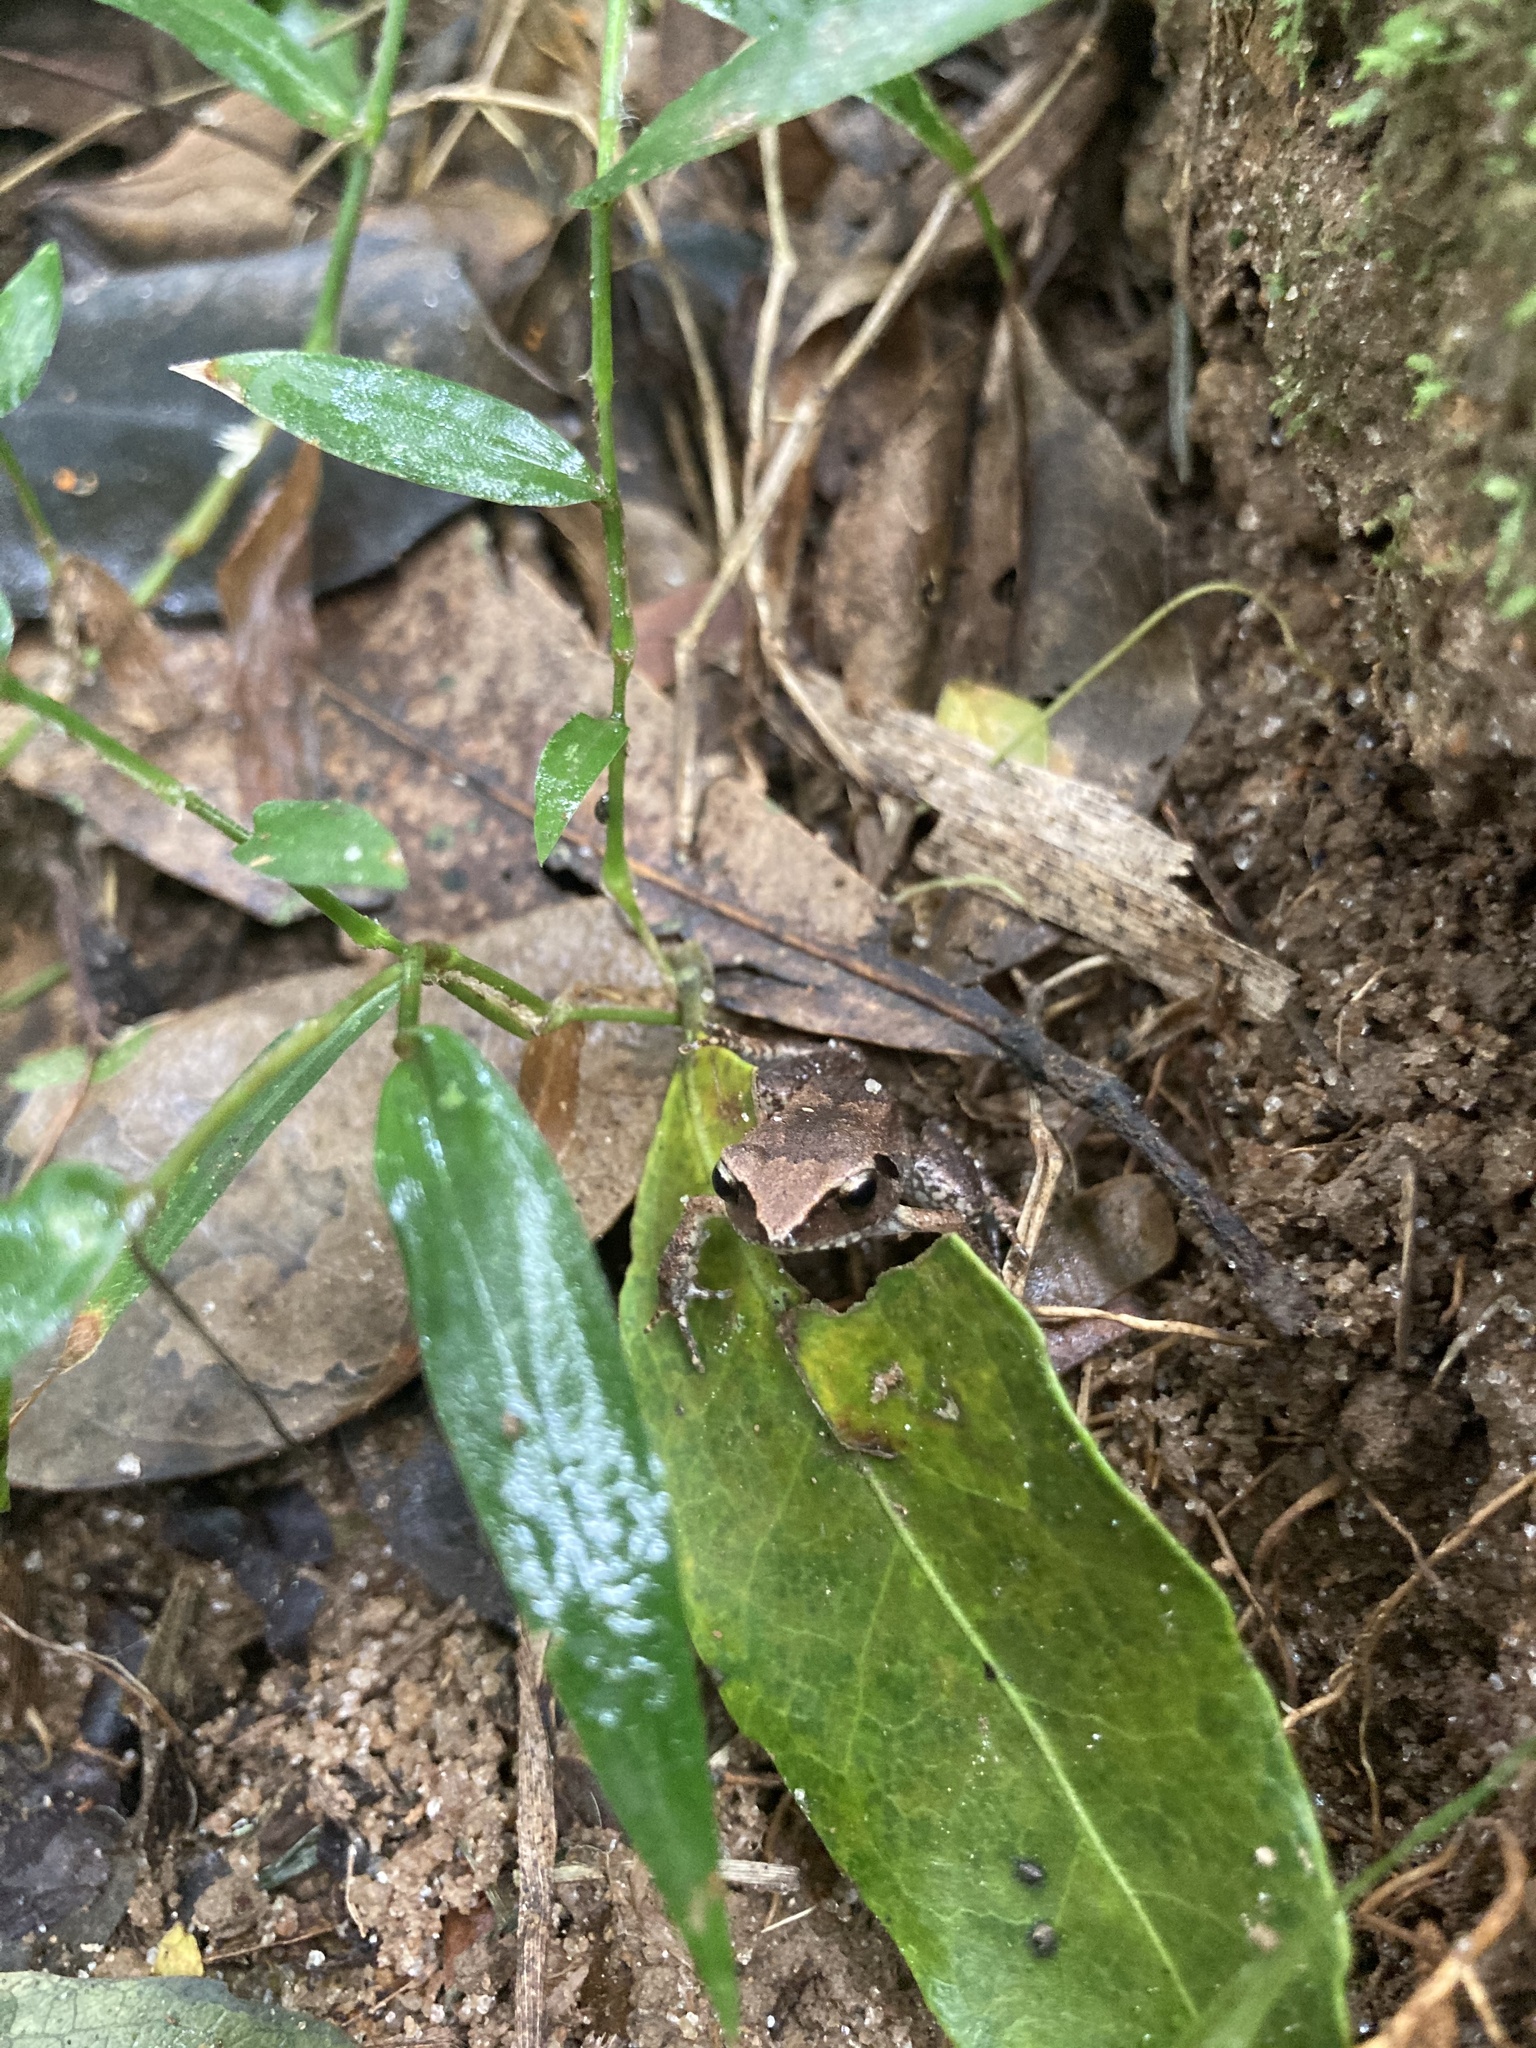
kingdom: Animalia
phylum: Chordata
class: Amphibia
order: Anura
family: Arthroleptidae
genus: Arthroleptis
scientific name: Arthroleptis wahlbergii
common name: Bush squeaker
